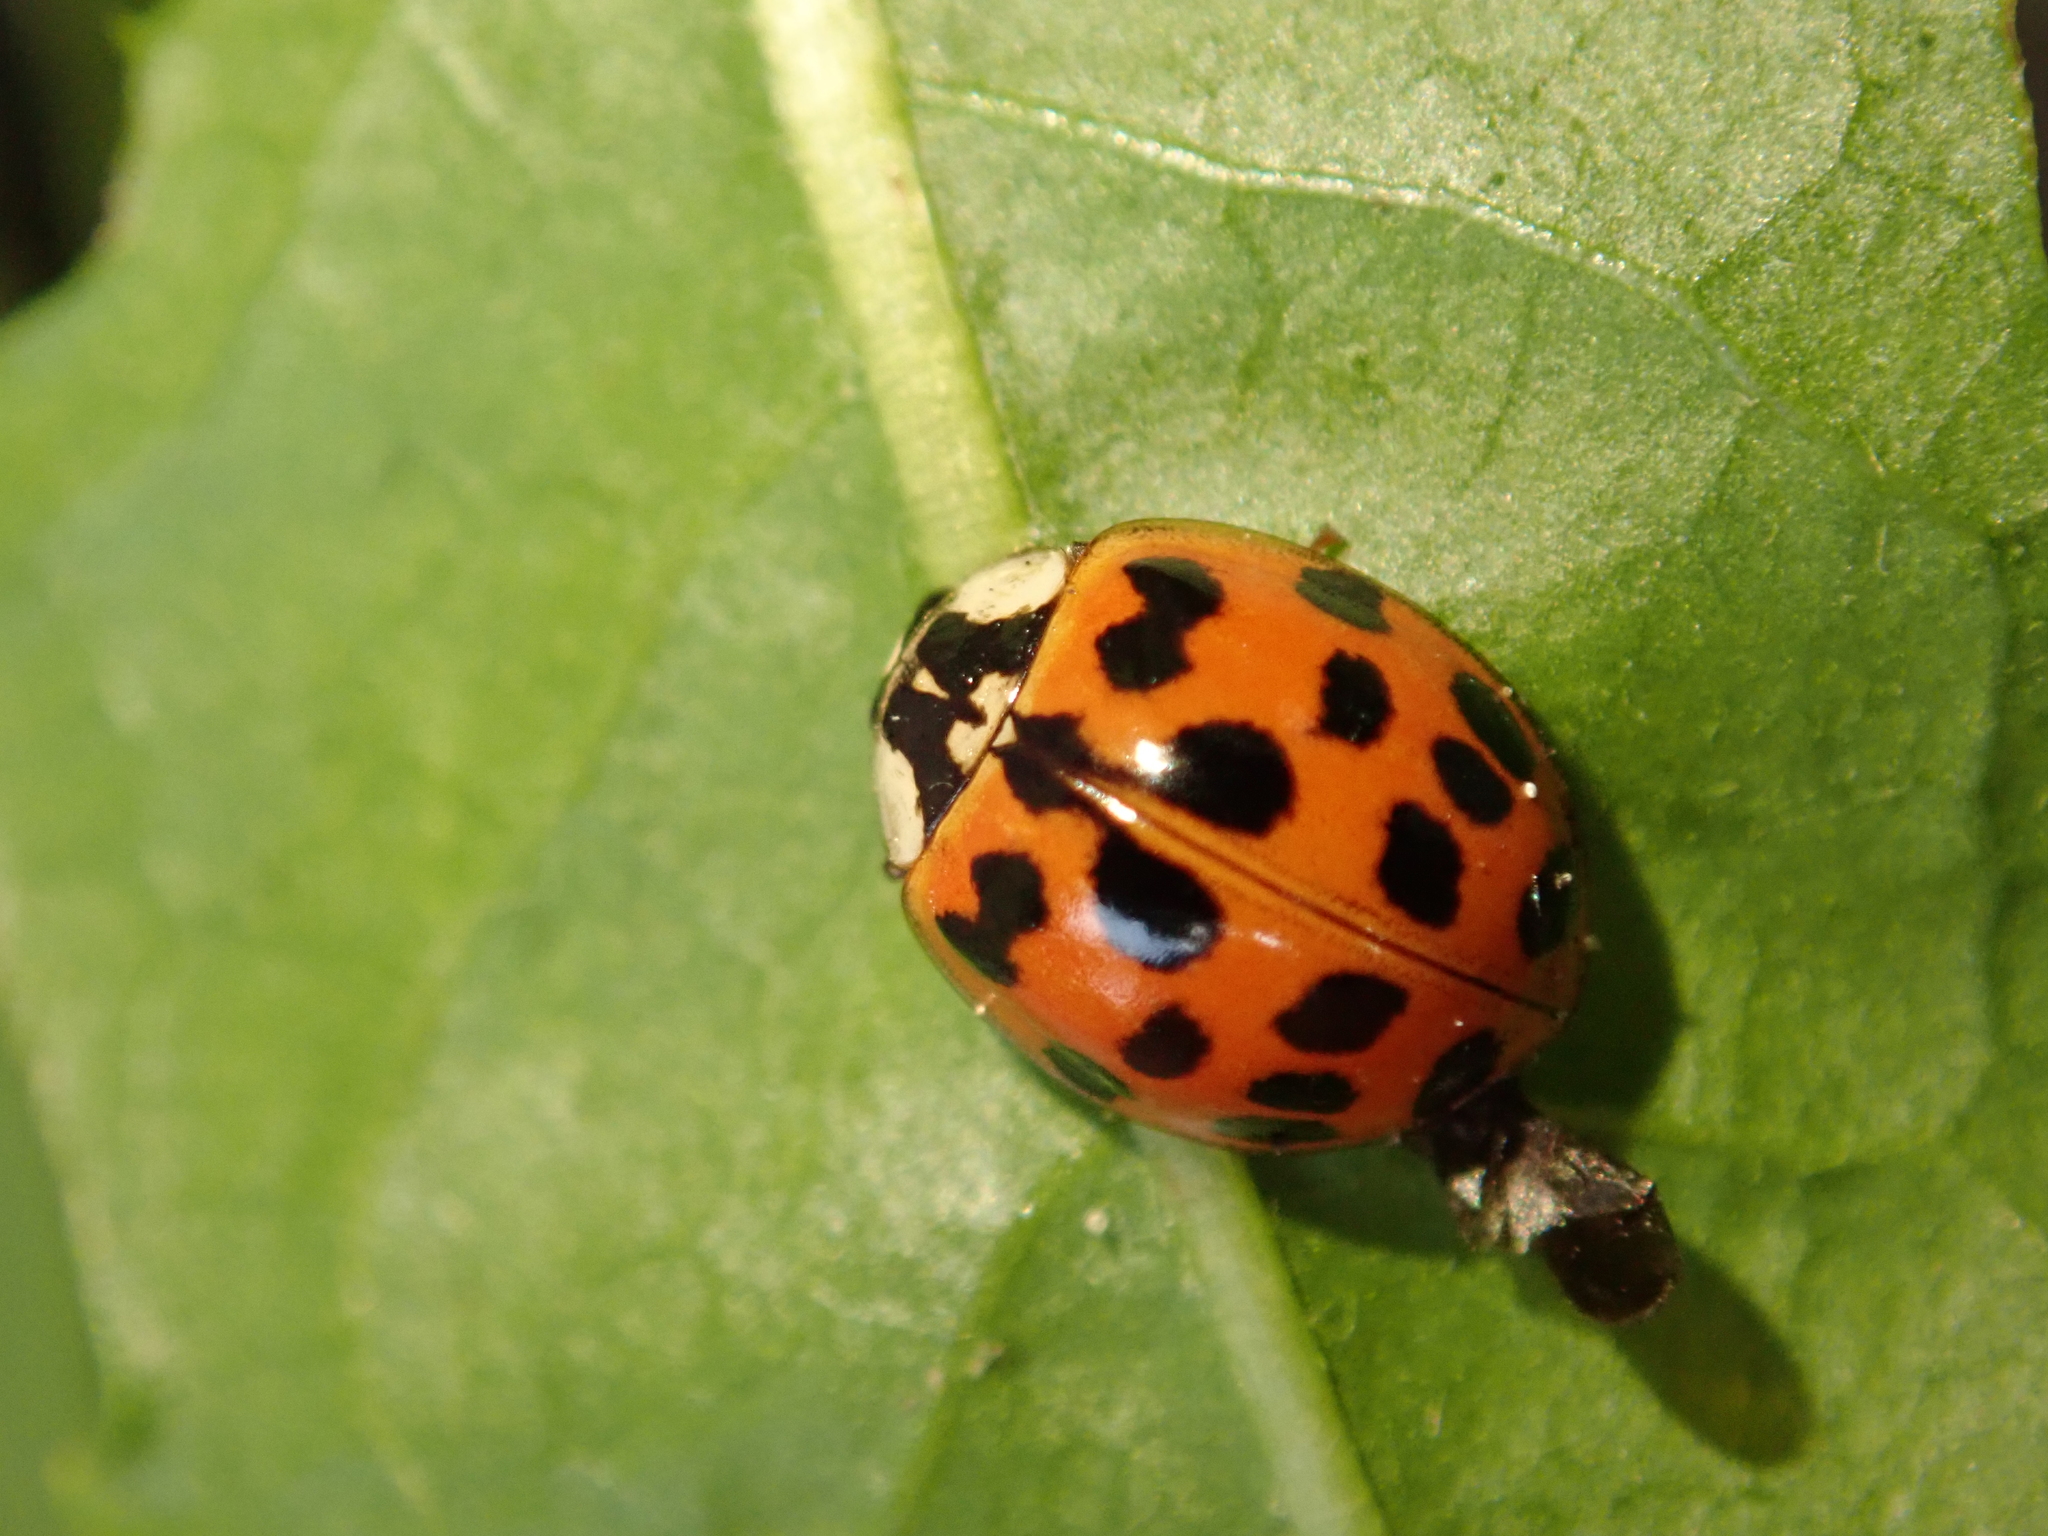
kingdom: Animalia
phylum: Arthropoda
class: Insecta
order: Coleoptera
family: Coccinellidae
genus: Harmonia
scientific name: Harmonia axyridis
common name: Harlequin ladybird
